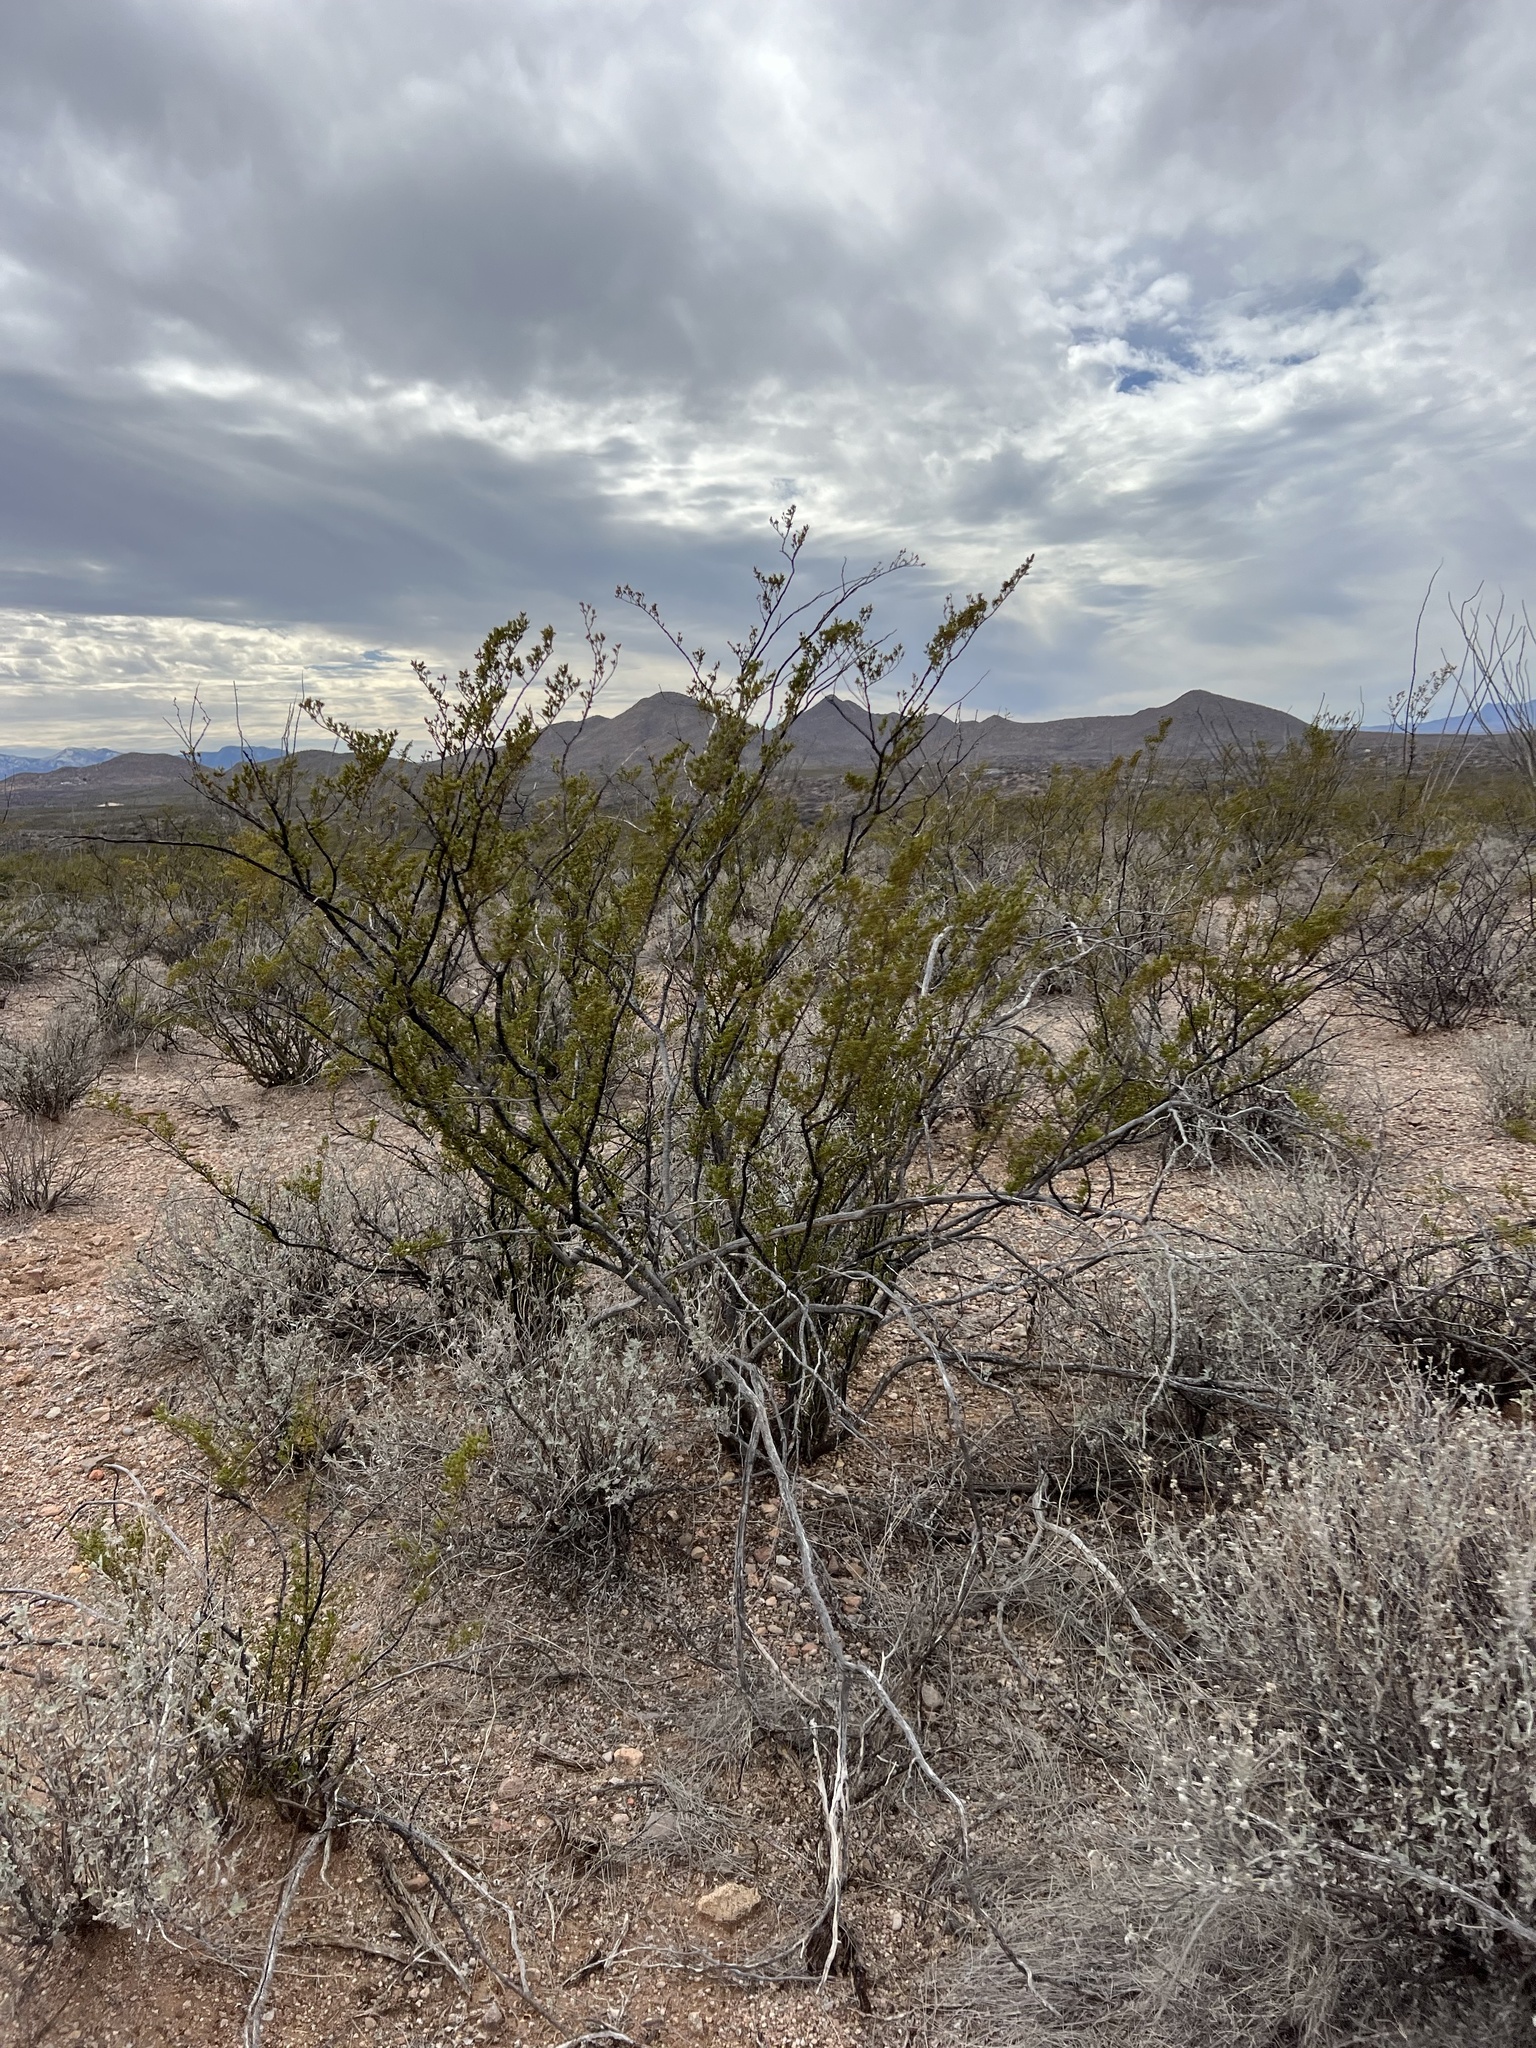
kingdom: Plantae
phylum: Tracheophyta
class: Magnoliopsida
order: Zygophyllales
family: Zygophyllaceae
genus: Larrea
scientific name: Larrea tridentata
